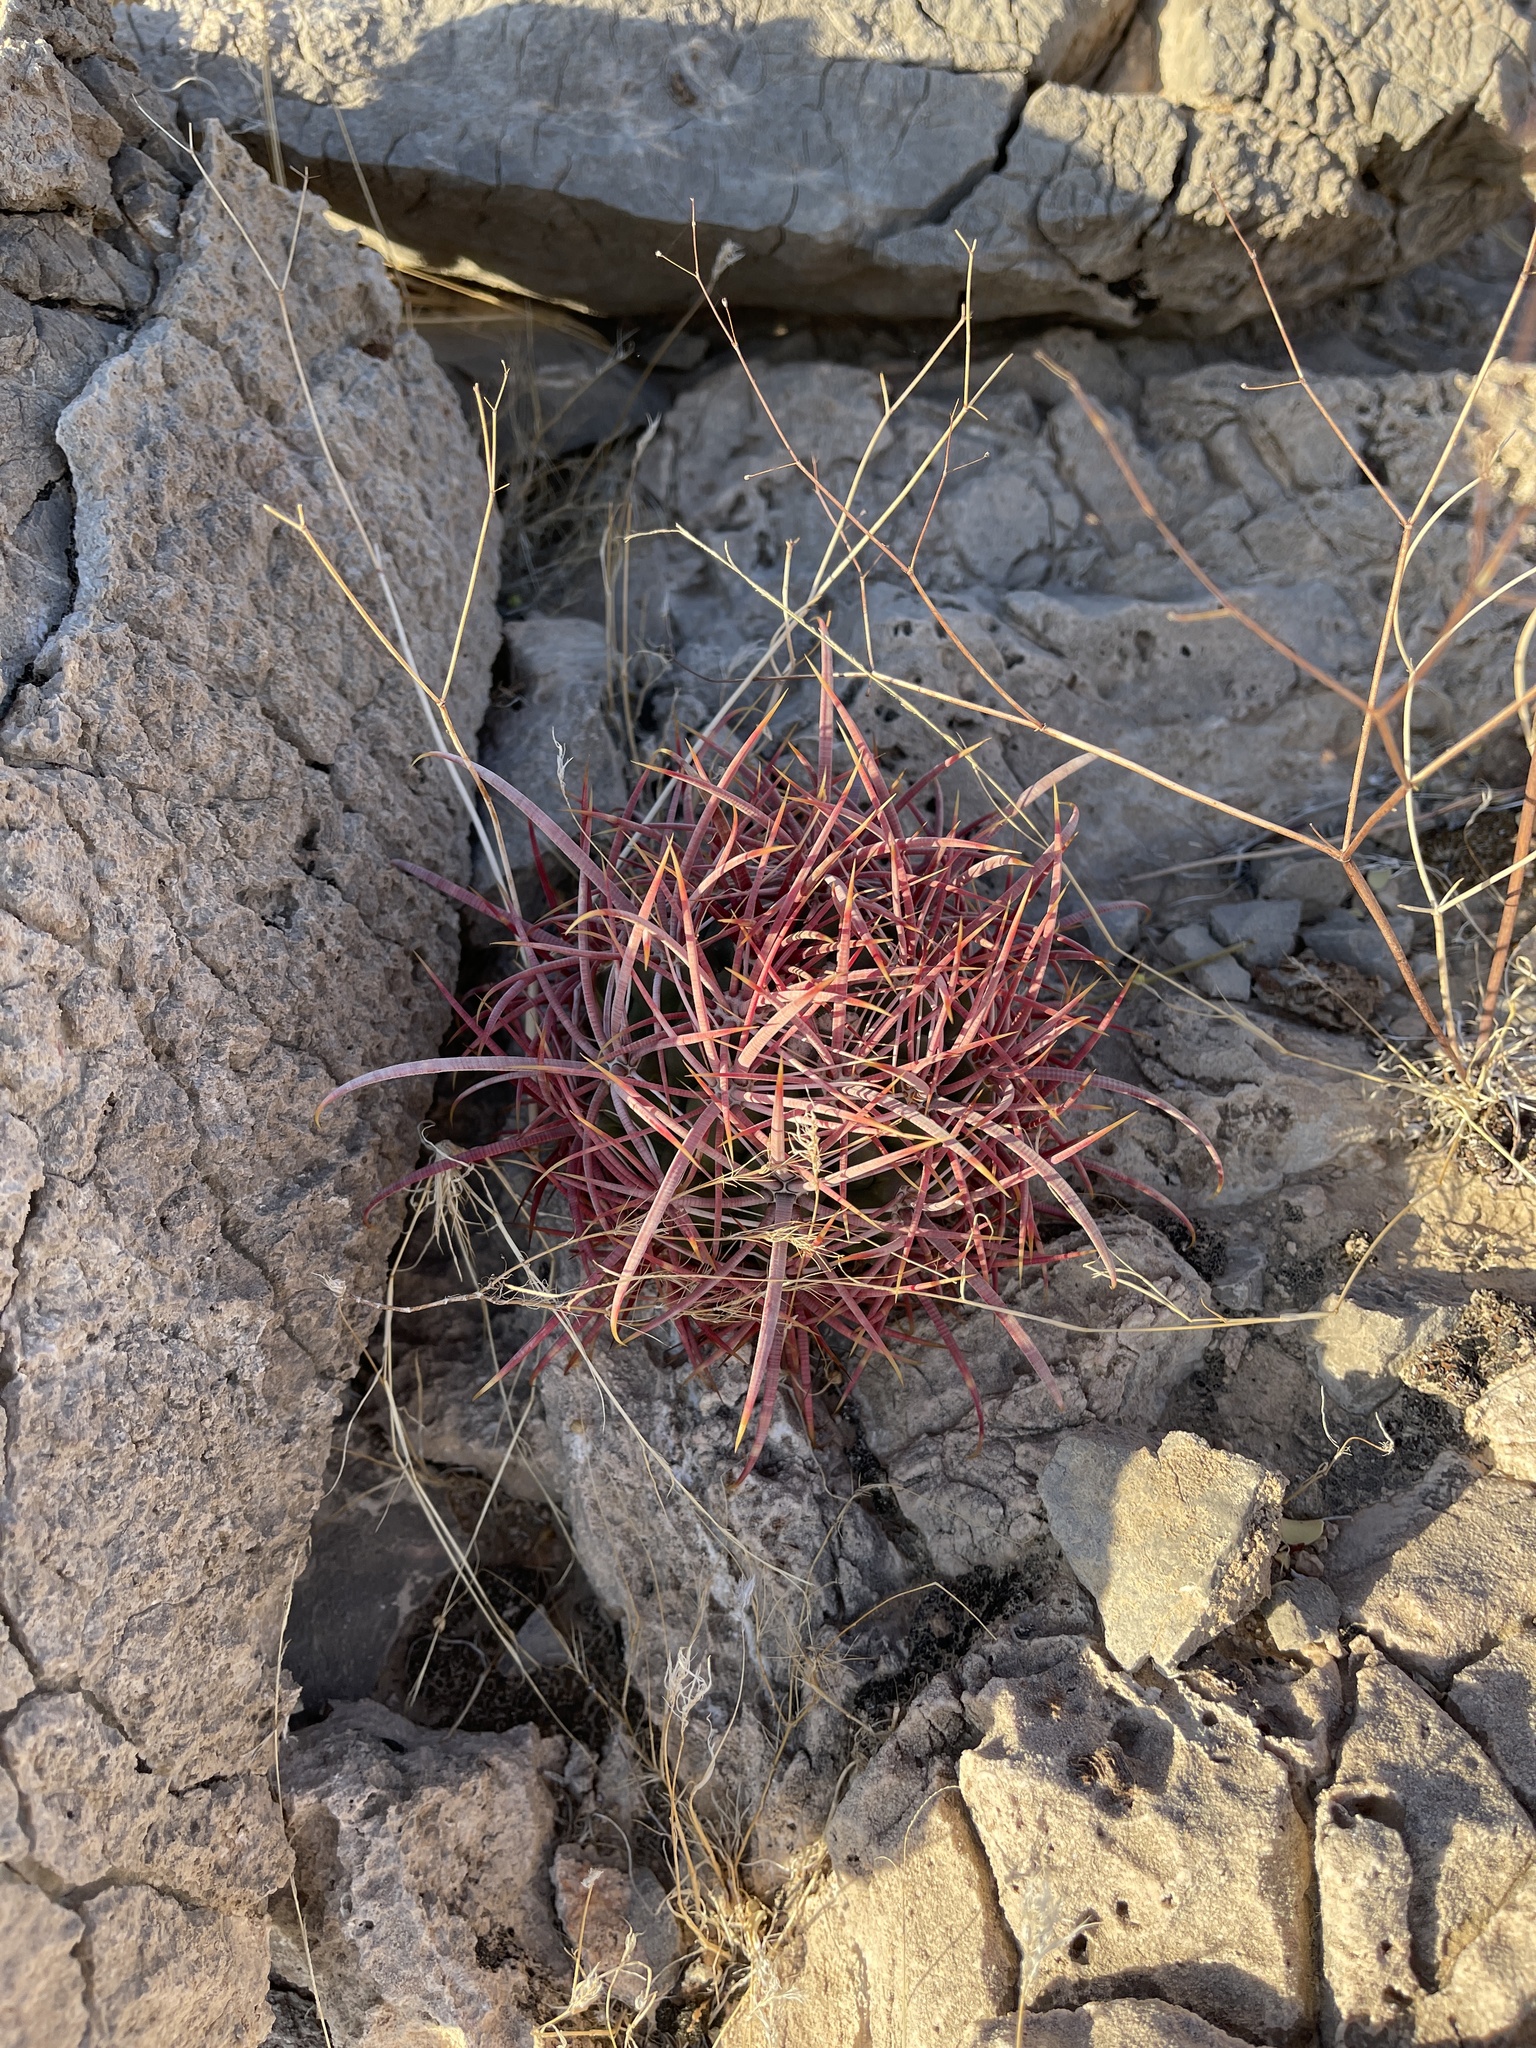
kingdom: Plantae
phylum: Tracheophyta
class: Magnoliopsida
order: Caryophyllales
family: Cactaceae
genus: Ferocactus
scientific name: Ferocactus cylindraceus
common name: California barrel cactus
